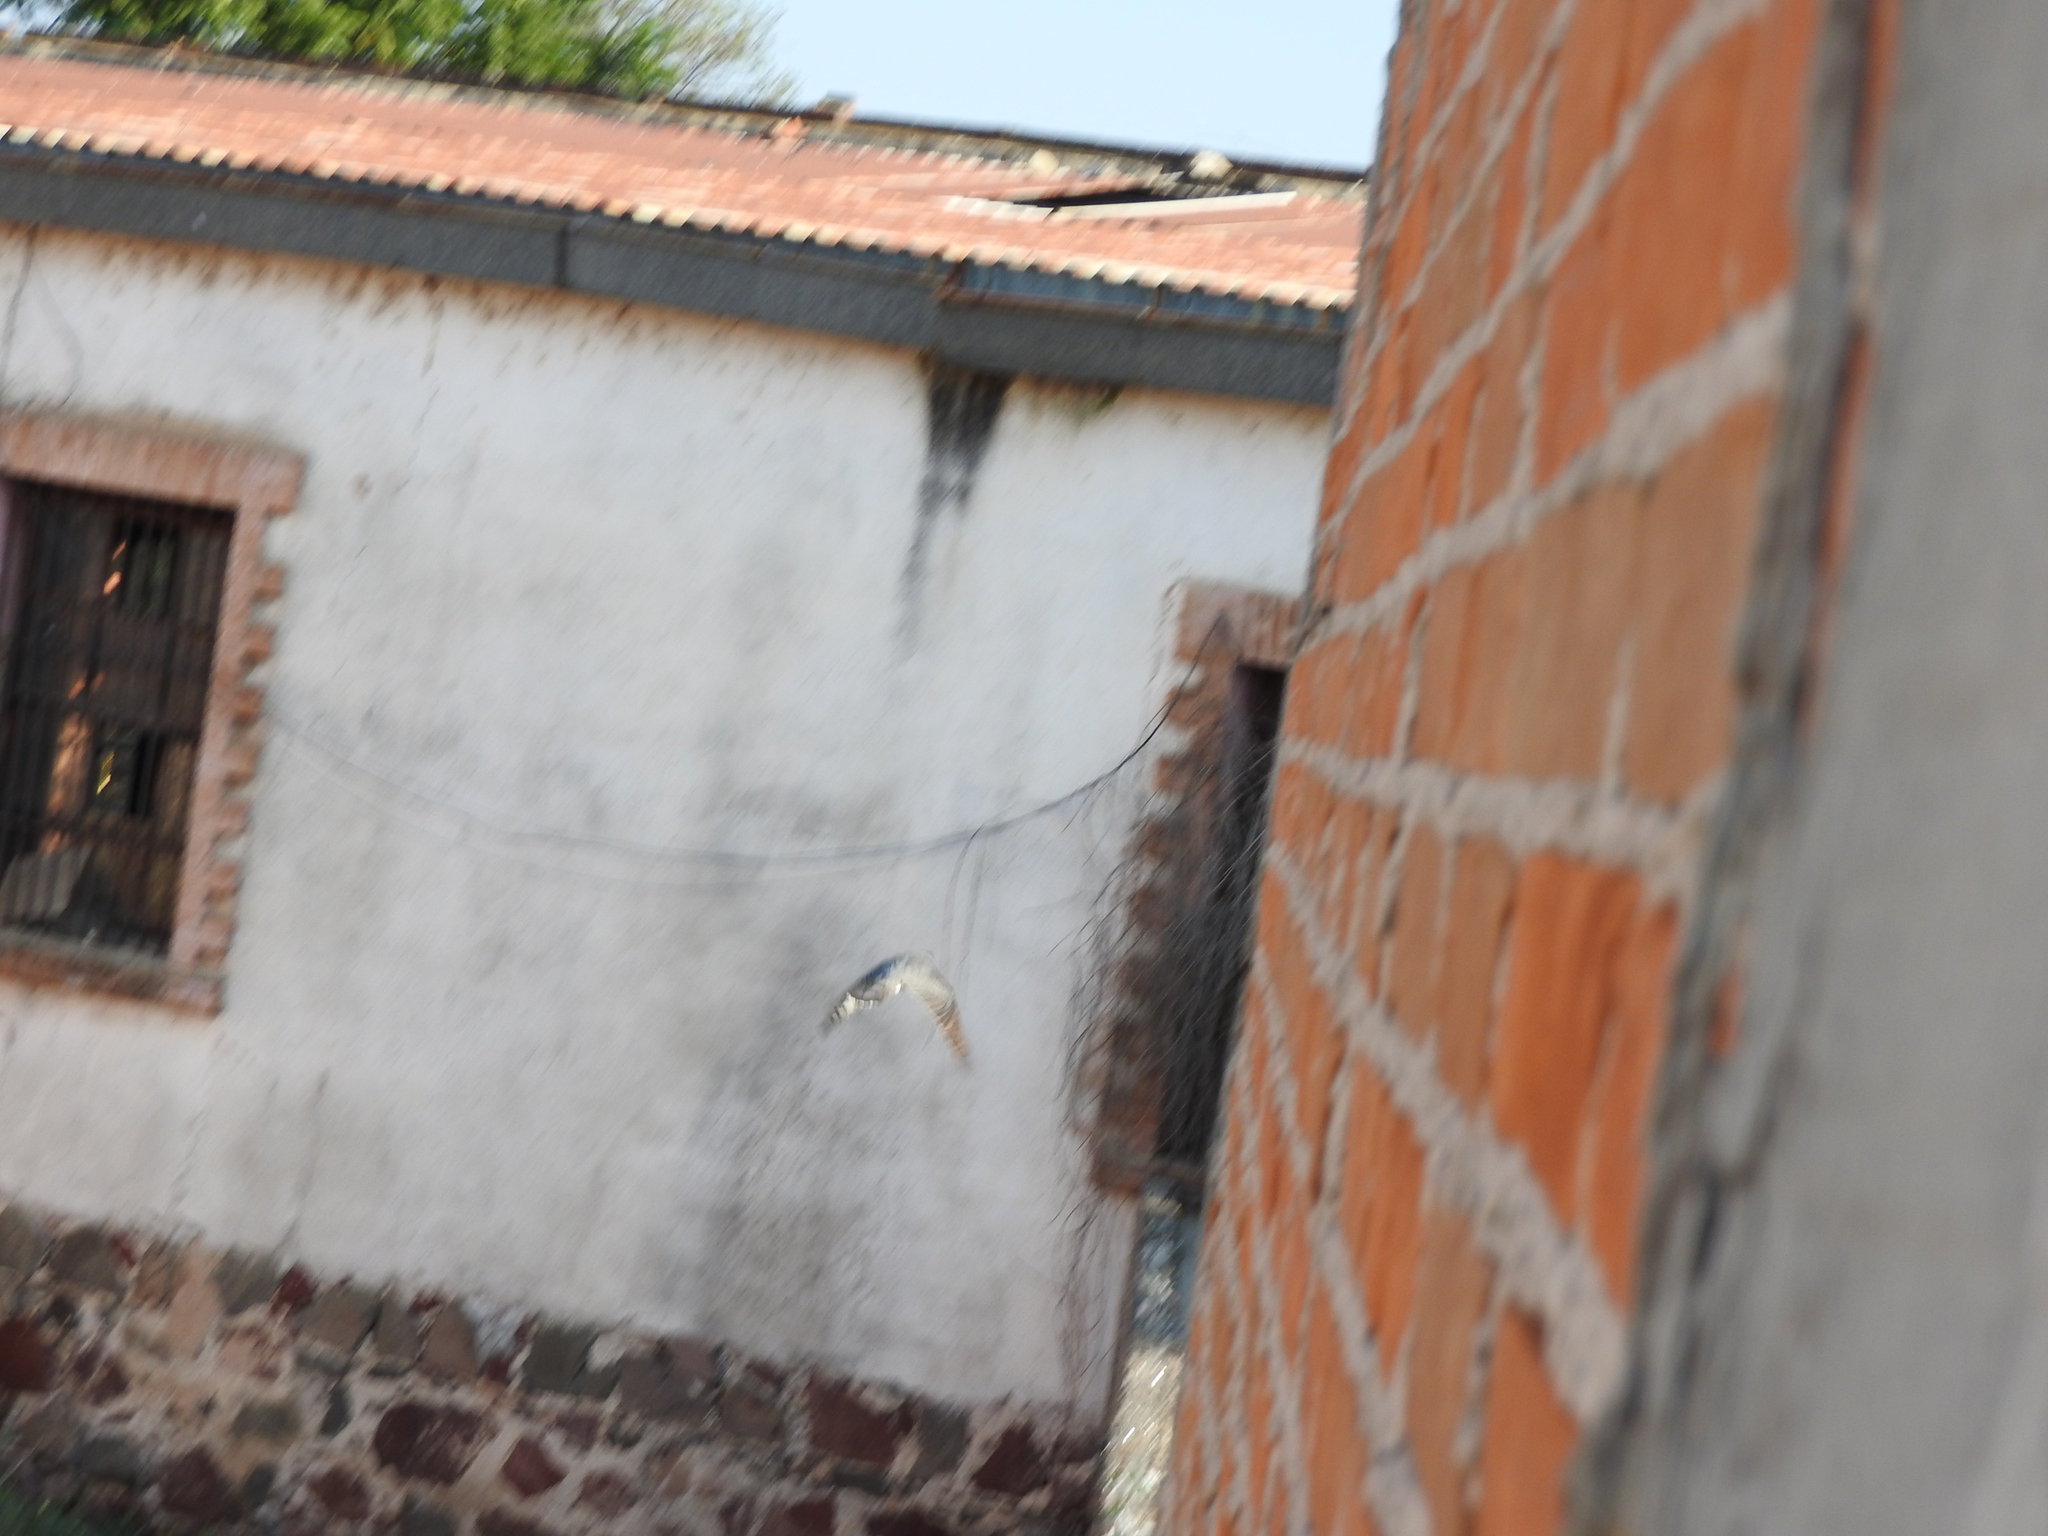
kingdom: Animalia
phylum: Chordata
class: Aves
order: Accipitriformes
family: Accipitridae
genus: Circus
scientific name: Circus cyaneus
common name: Hen harrier
